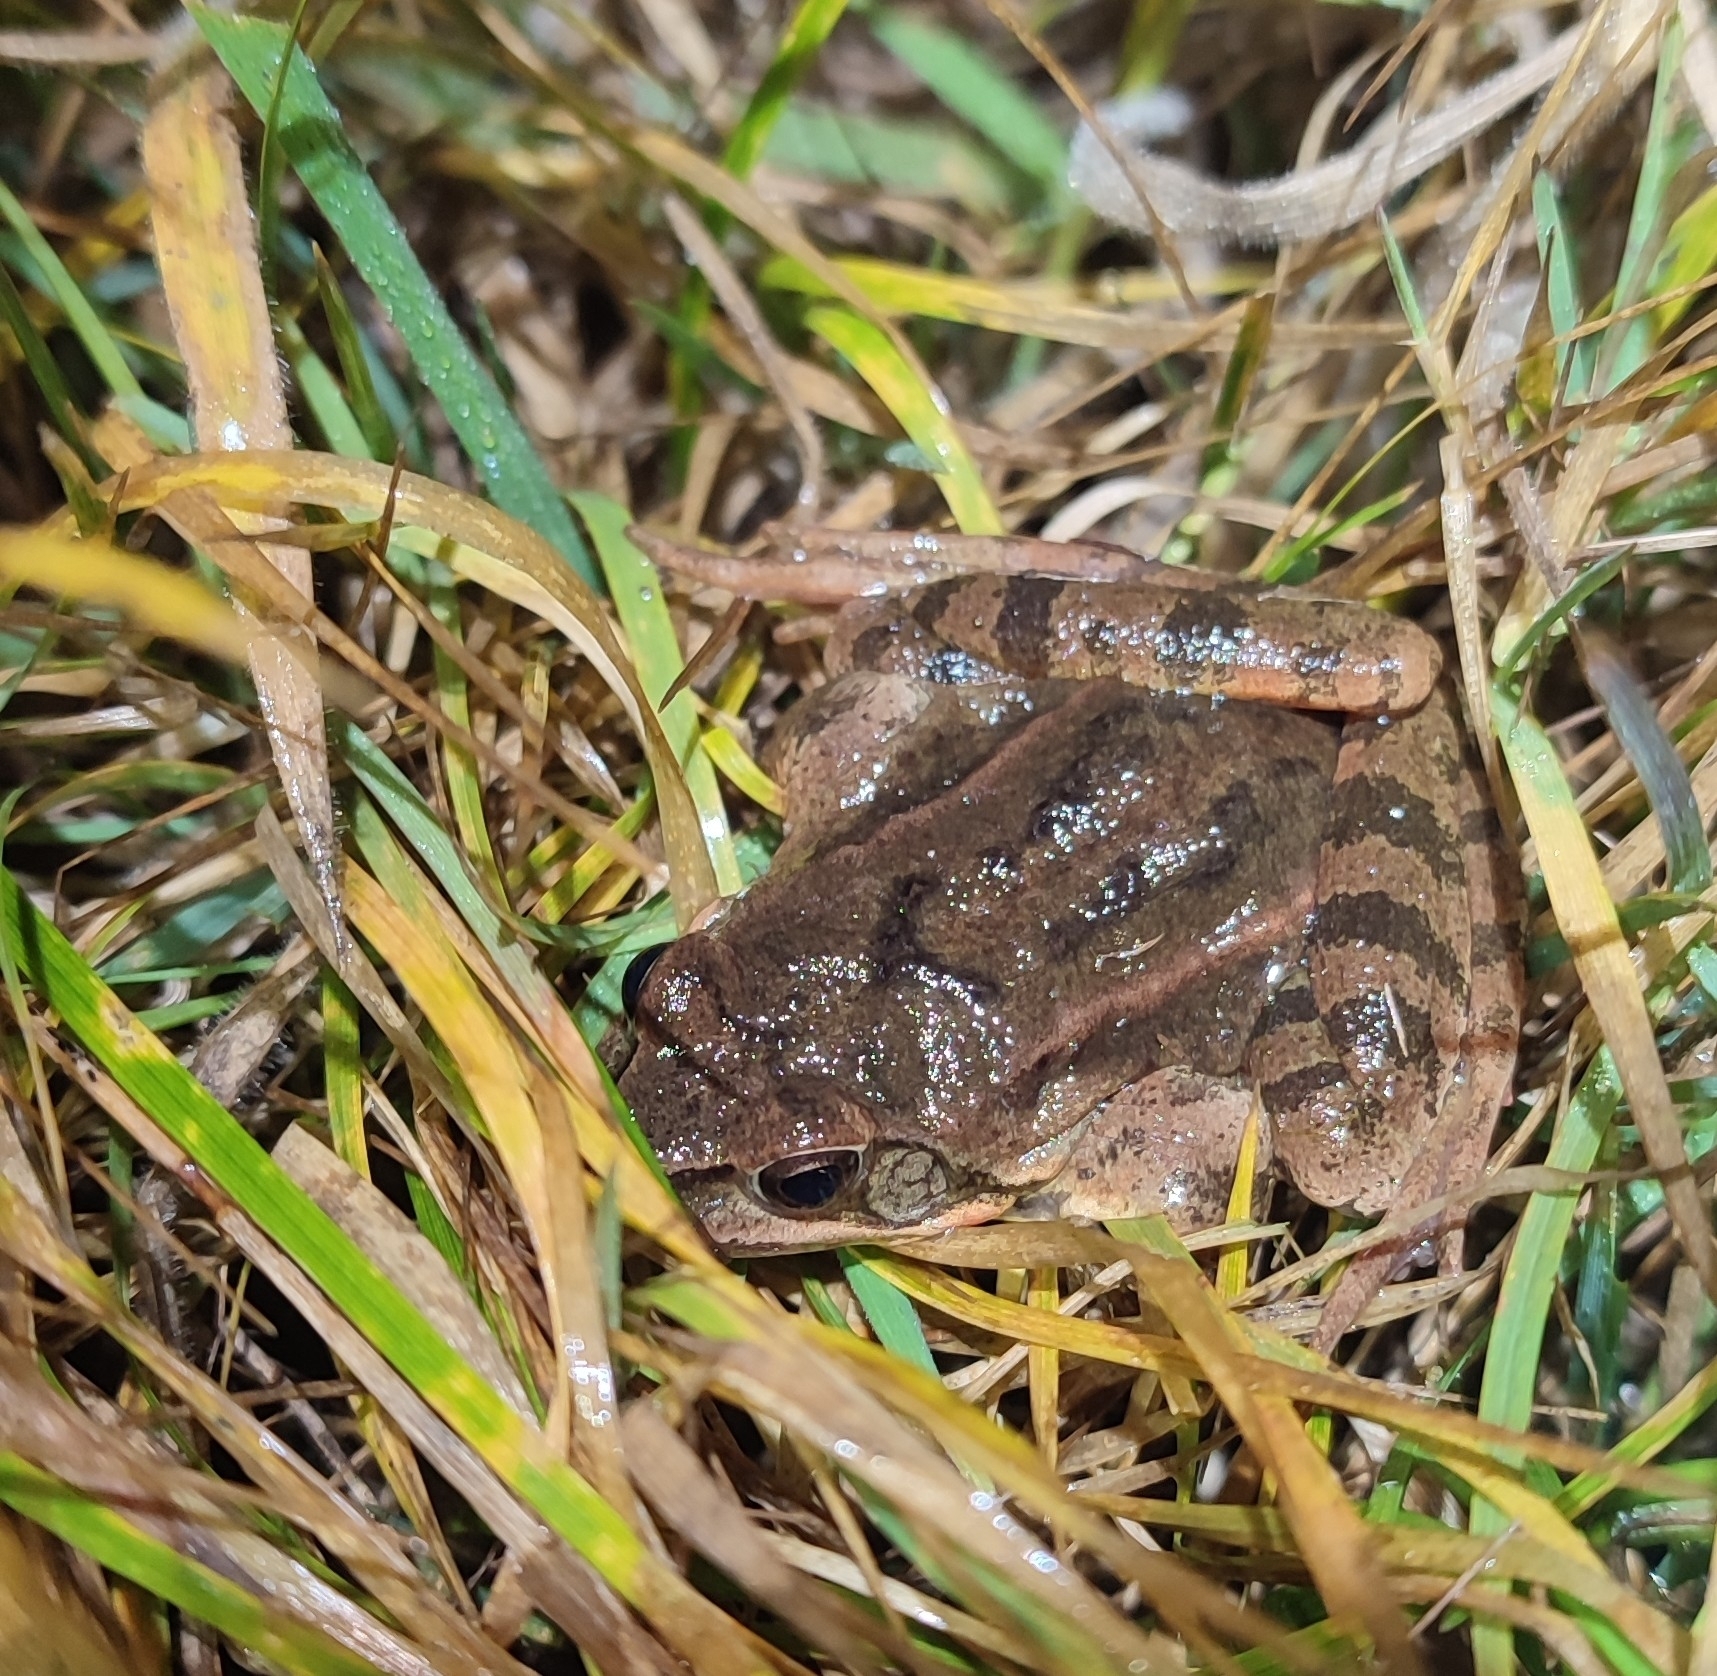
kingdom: Animalia
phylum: Chordata
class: Amphibia
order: Anura
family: Ranidae
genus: Rana
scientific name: Rana dalmatina
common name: Agile frog
